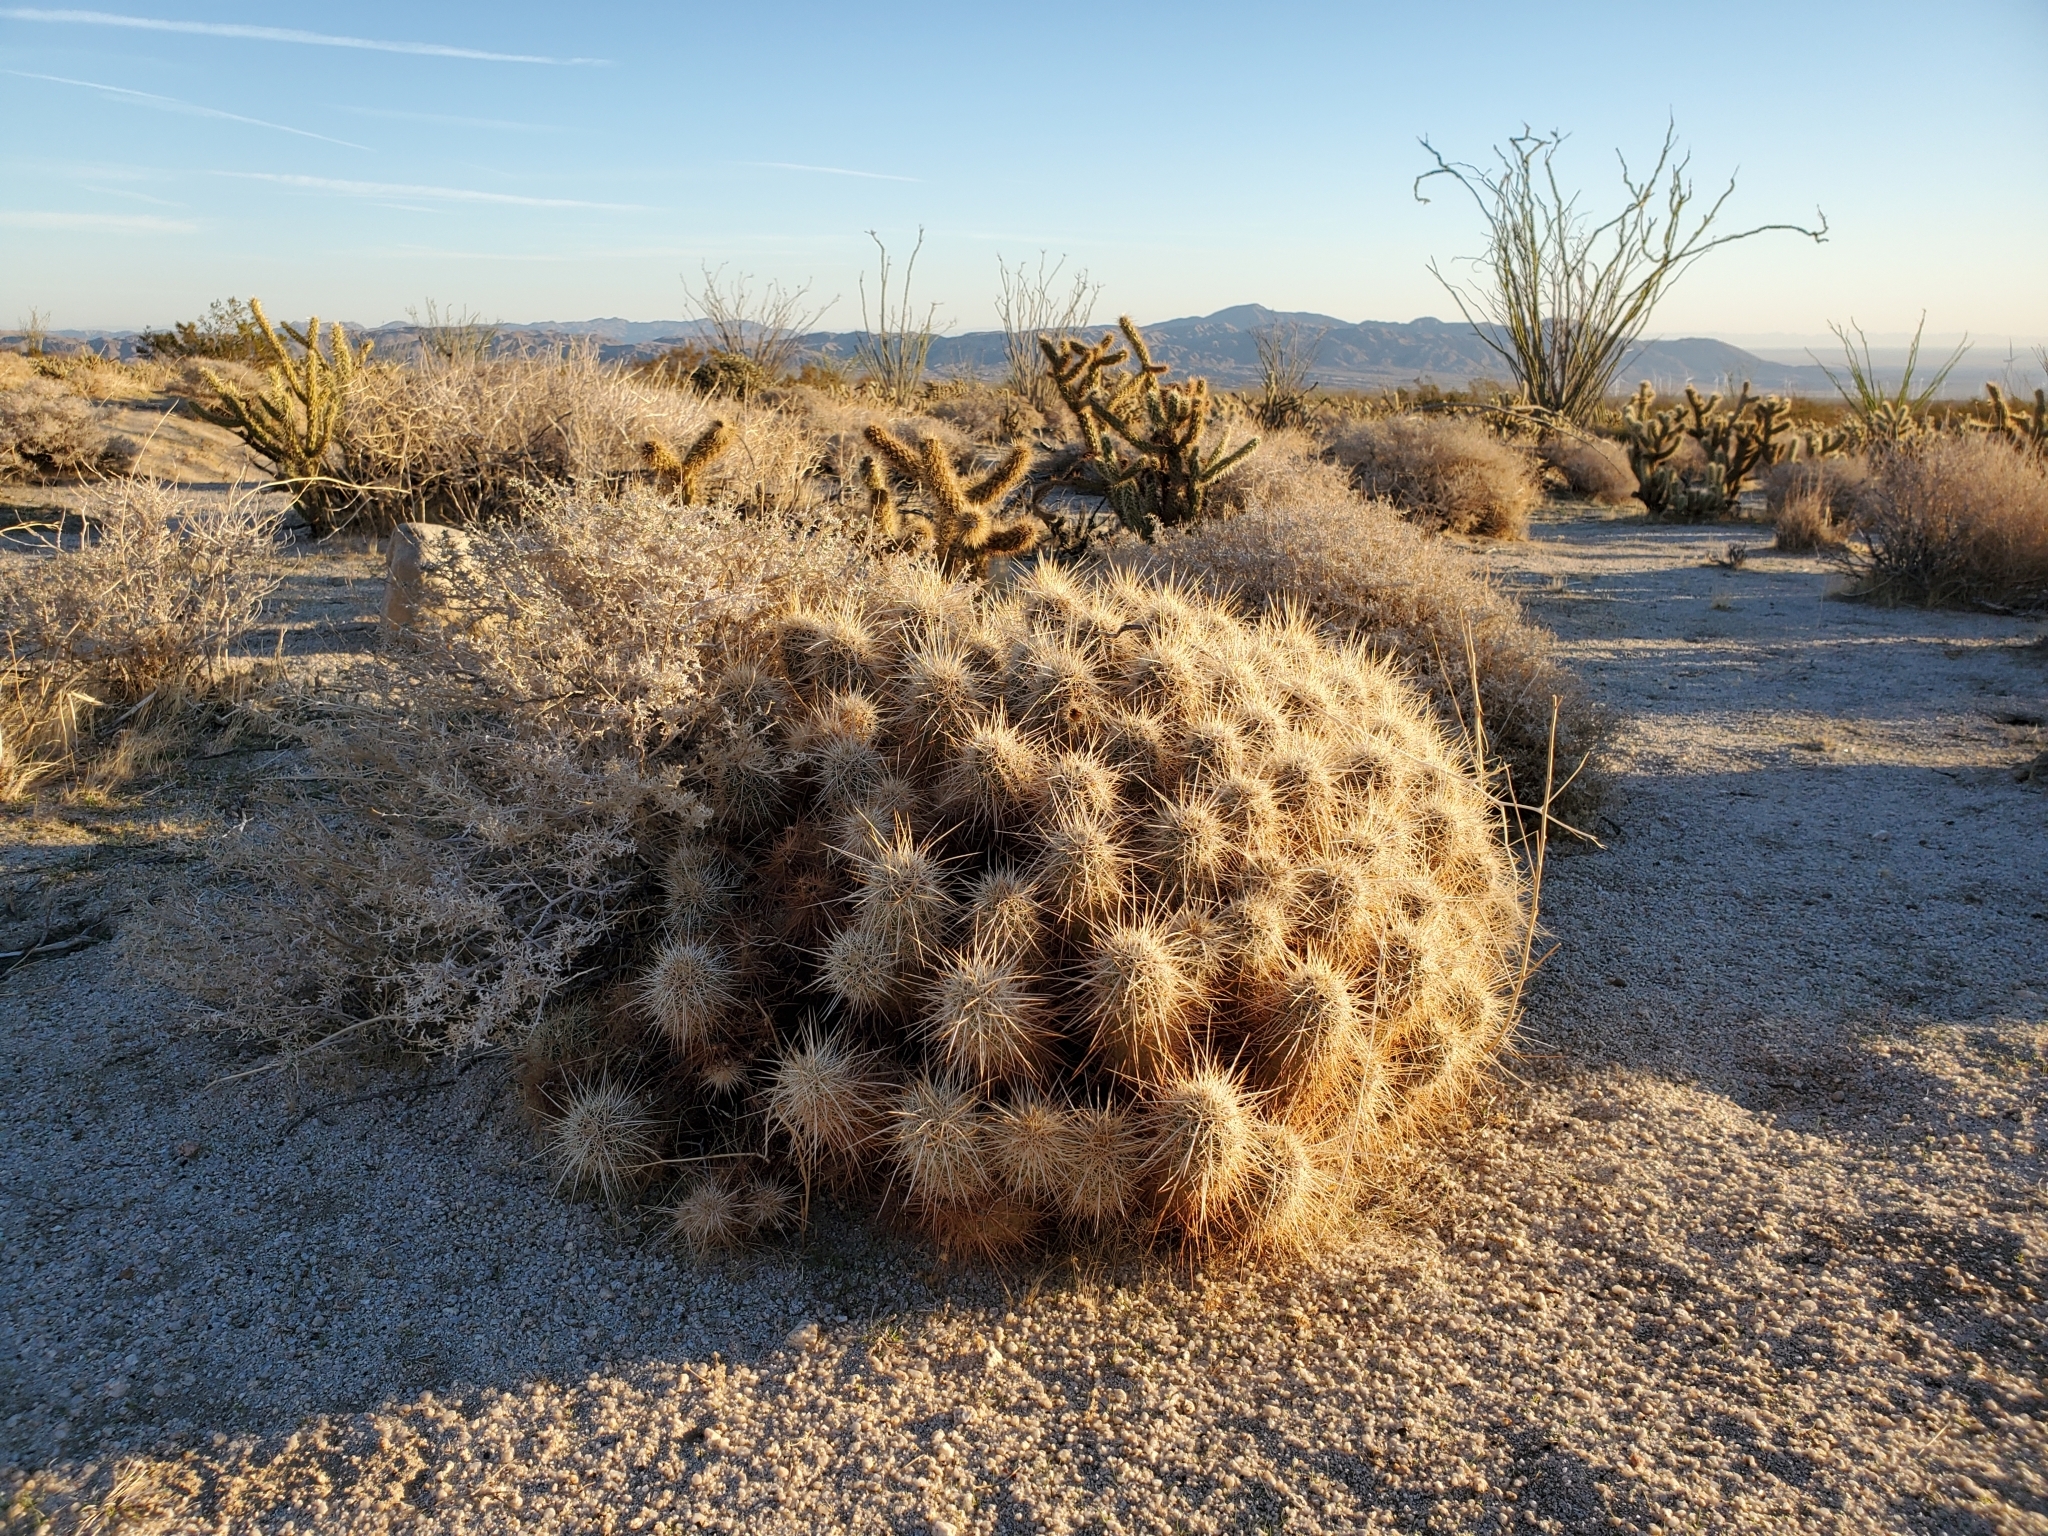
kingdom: Plantae
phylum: Tracheophyta
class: Magnoliopsida
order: Caryophyllales
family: Cactaceae
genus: Echinocereus
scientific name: Echinocereus engelmannii
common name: Engelmann's hedgehog cactus
